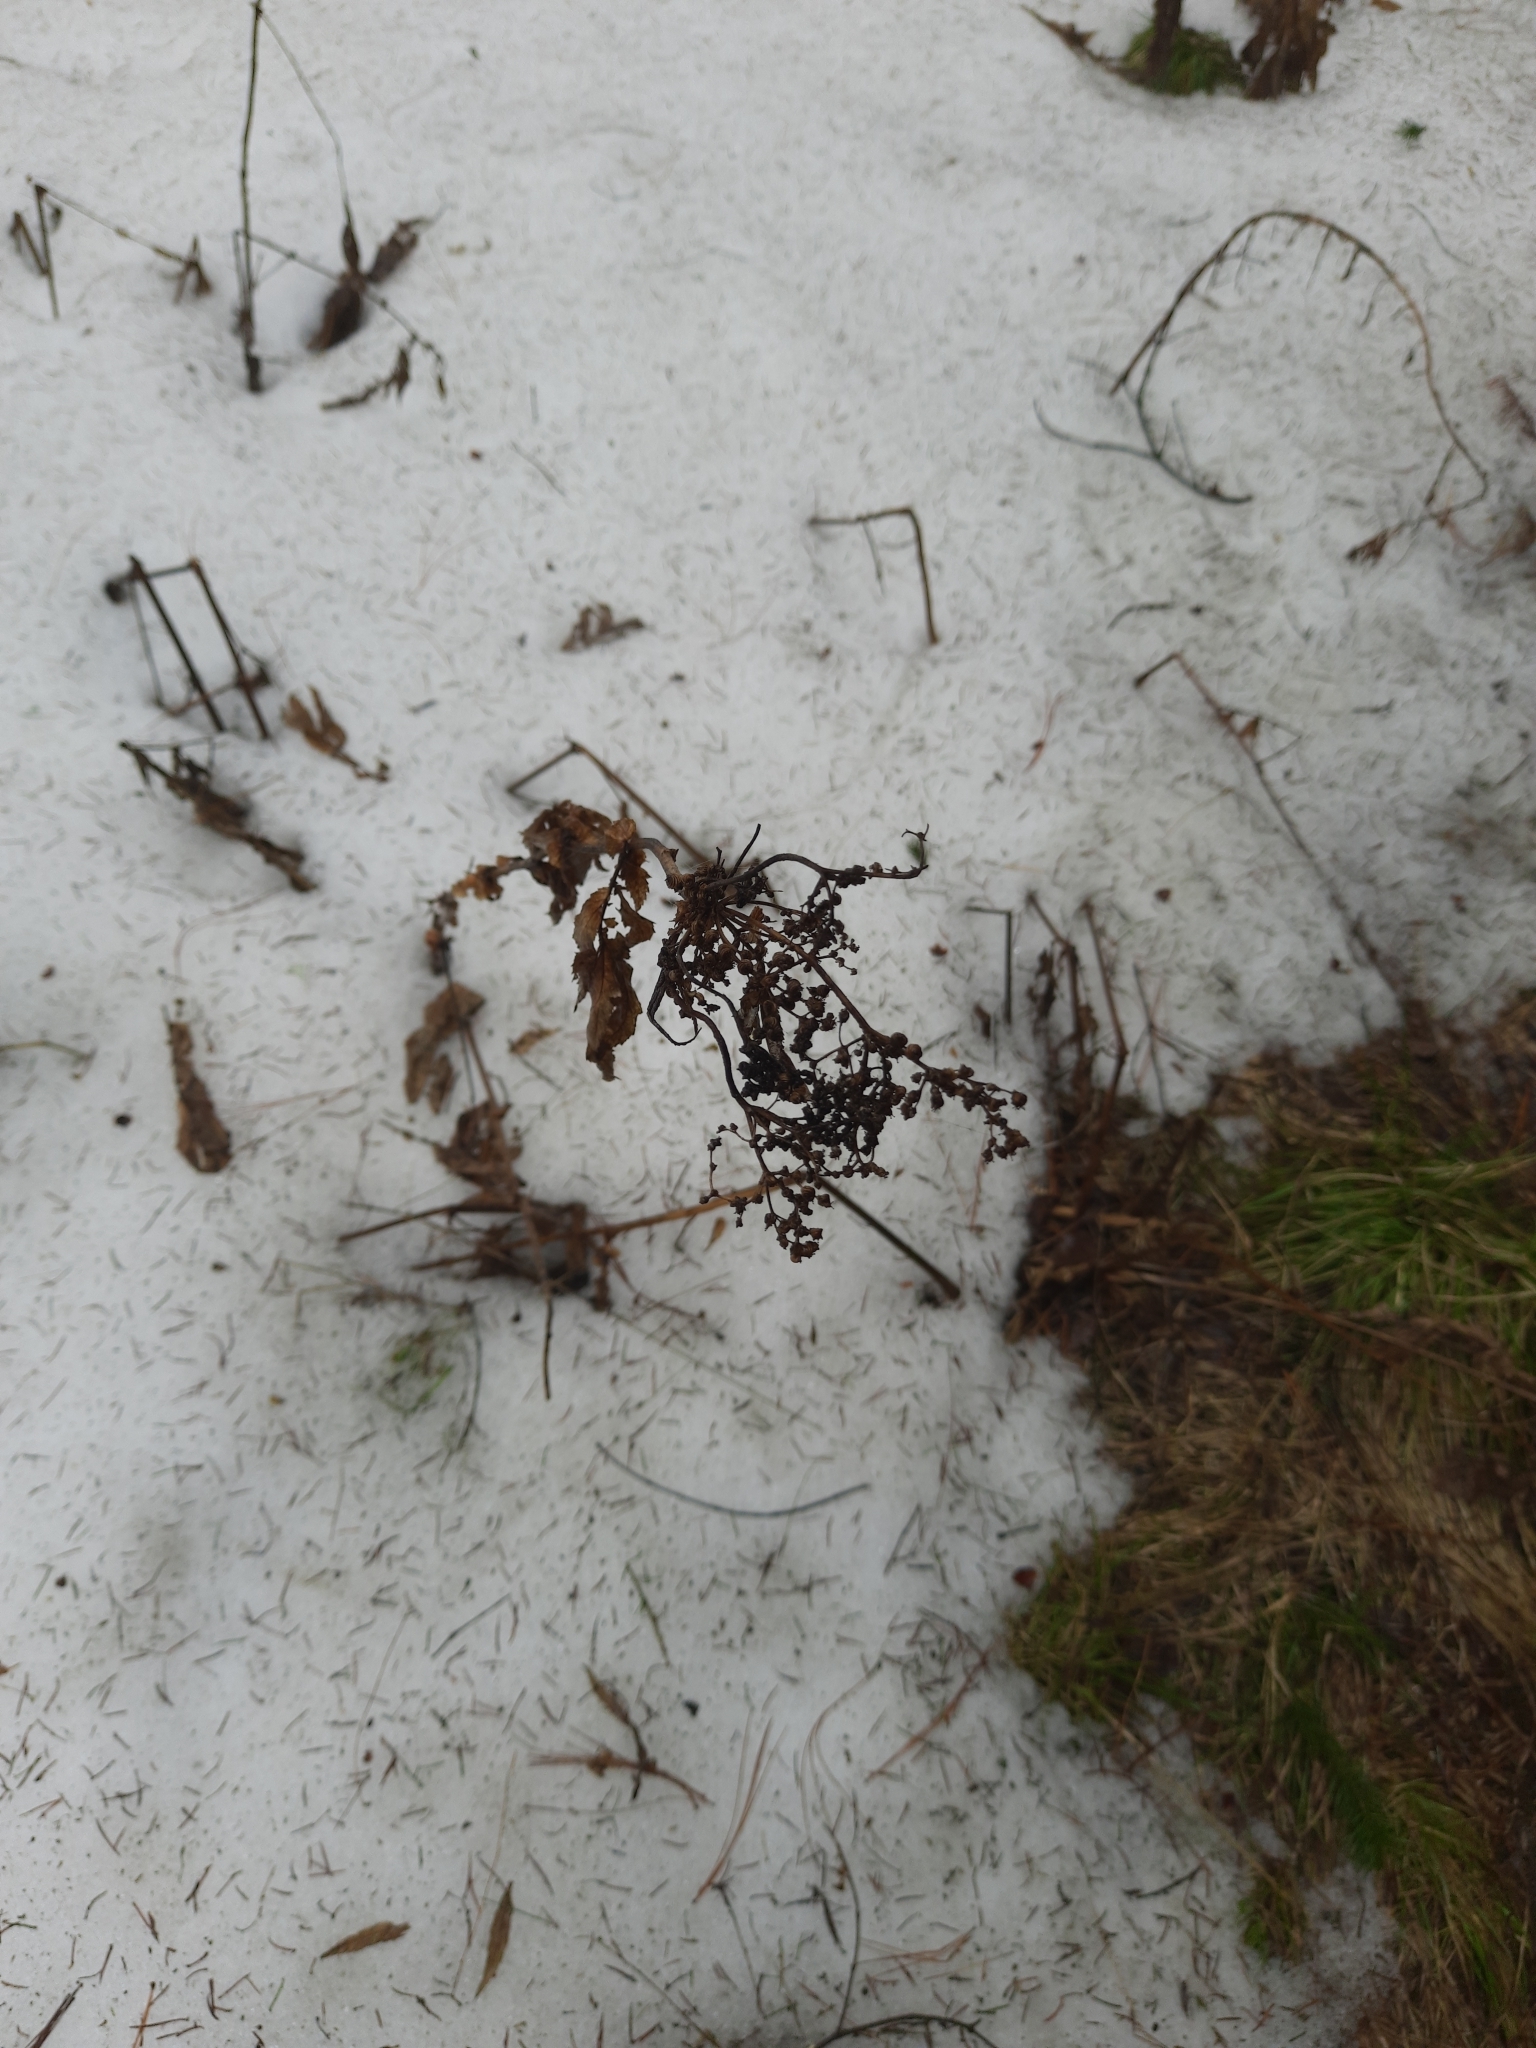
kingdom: Plantae
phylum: Tracheophyta
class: Magnoliopsida
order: Rosales
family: Rosaceae
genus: Filipendula
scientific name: Filipendula ulmaria
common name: Meadowsweet
